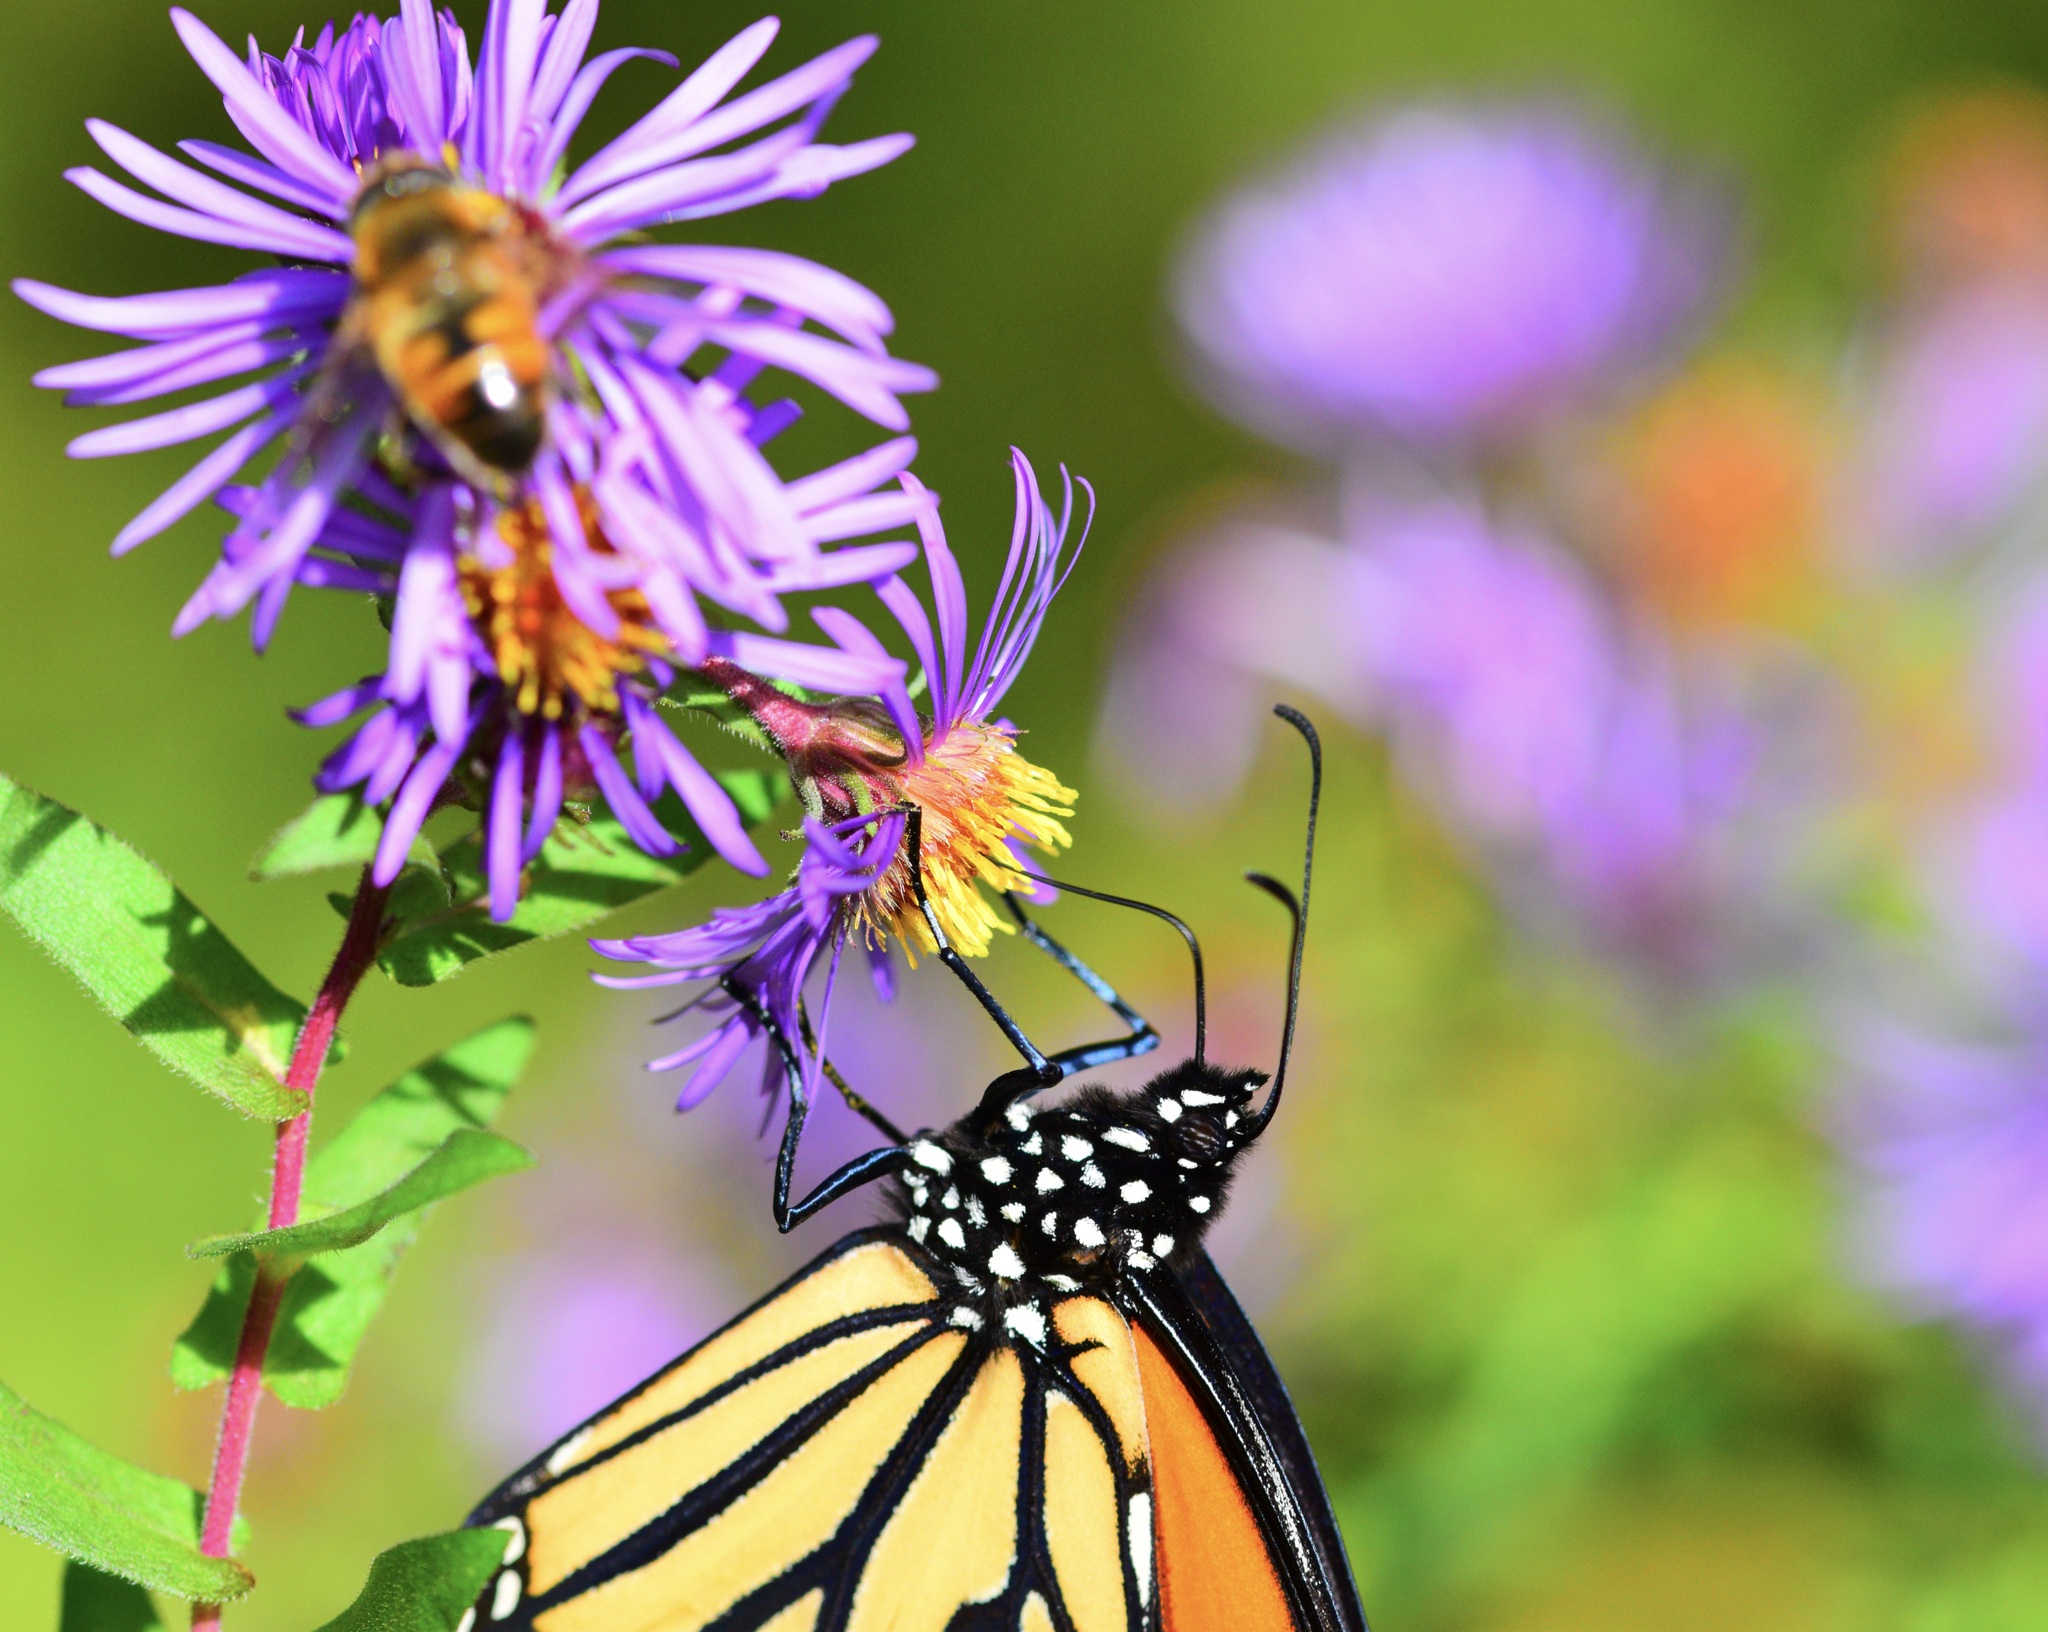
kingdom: Animalia
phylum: Arthropoda
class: Insecta
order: Lepidoptera
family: Nymphalidae
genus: Danaus
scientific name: Danaus plexippus
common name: Monarch
